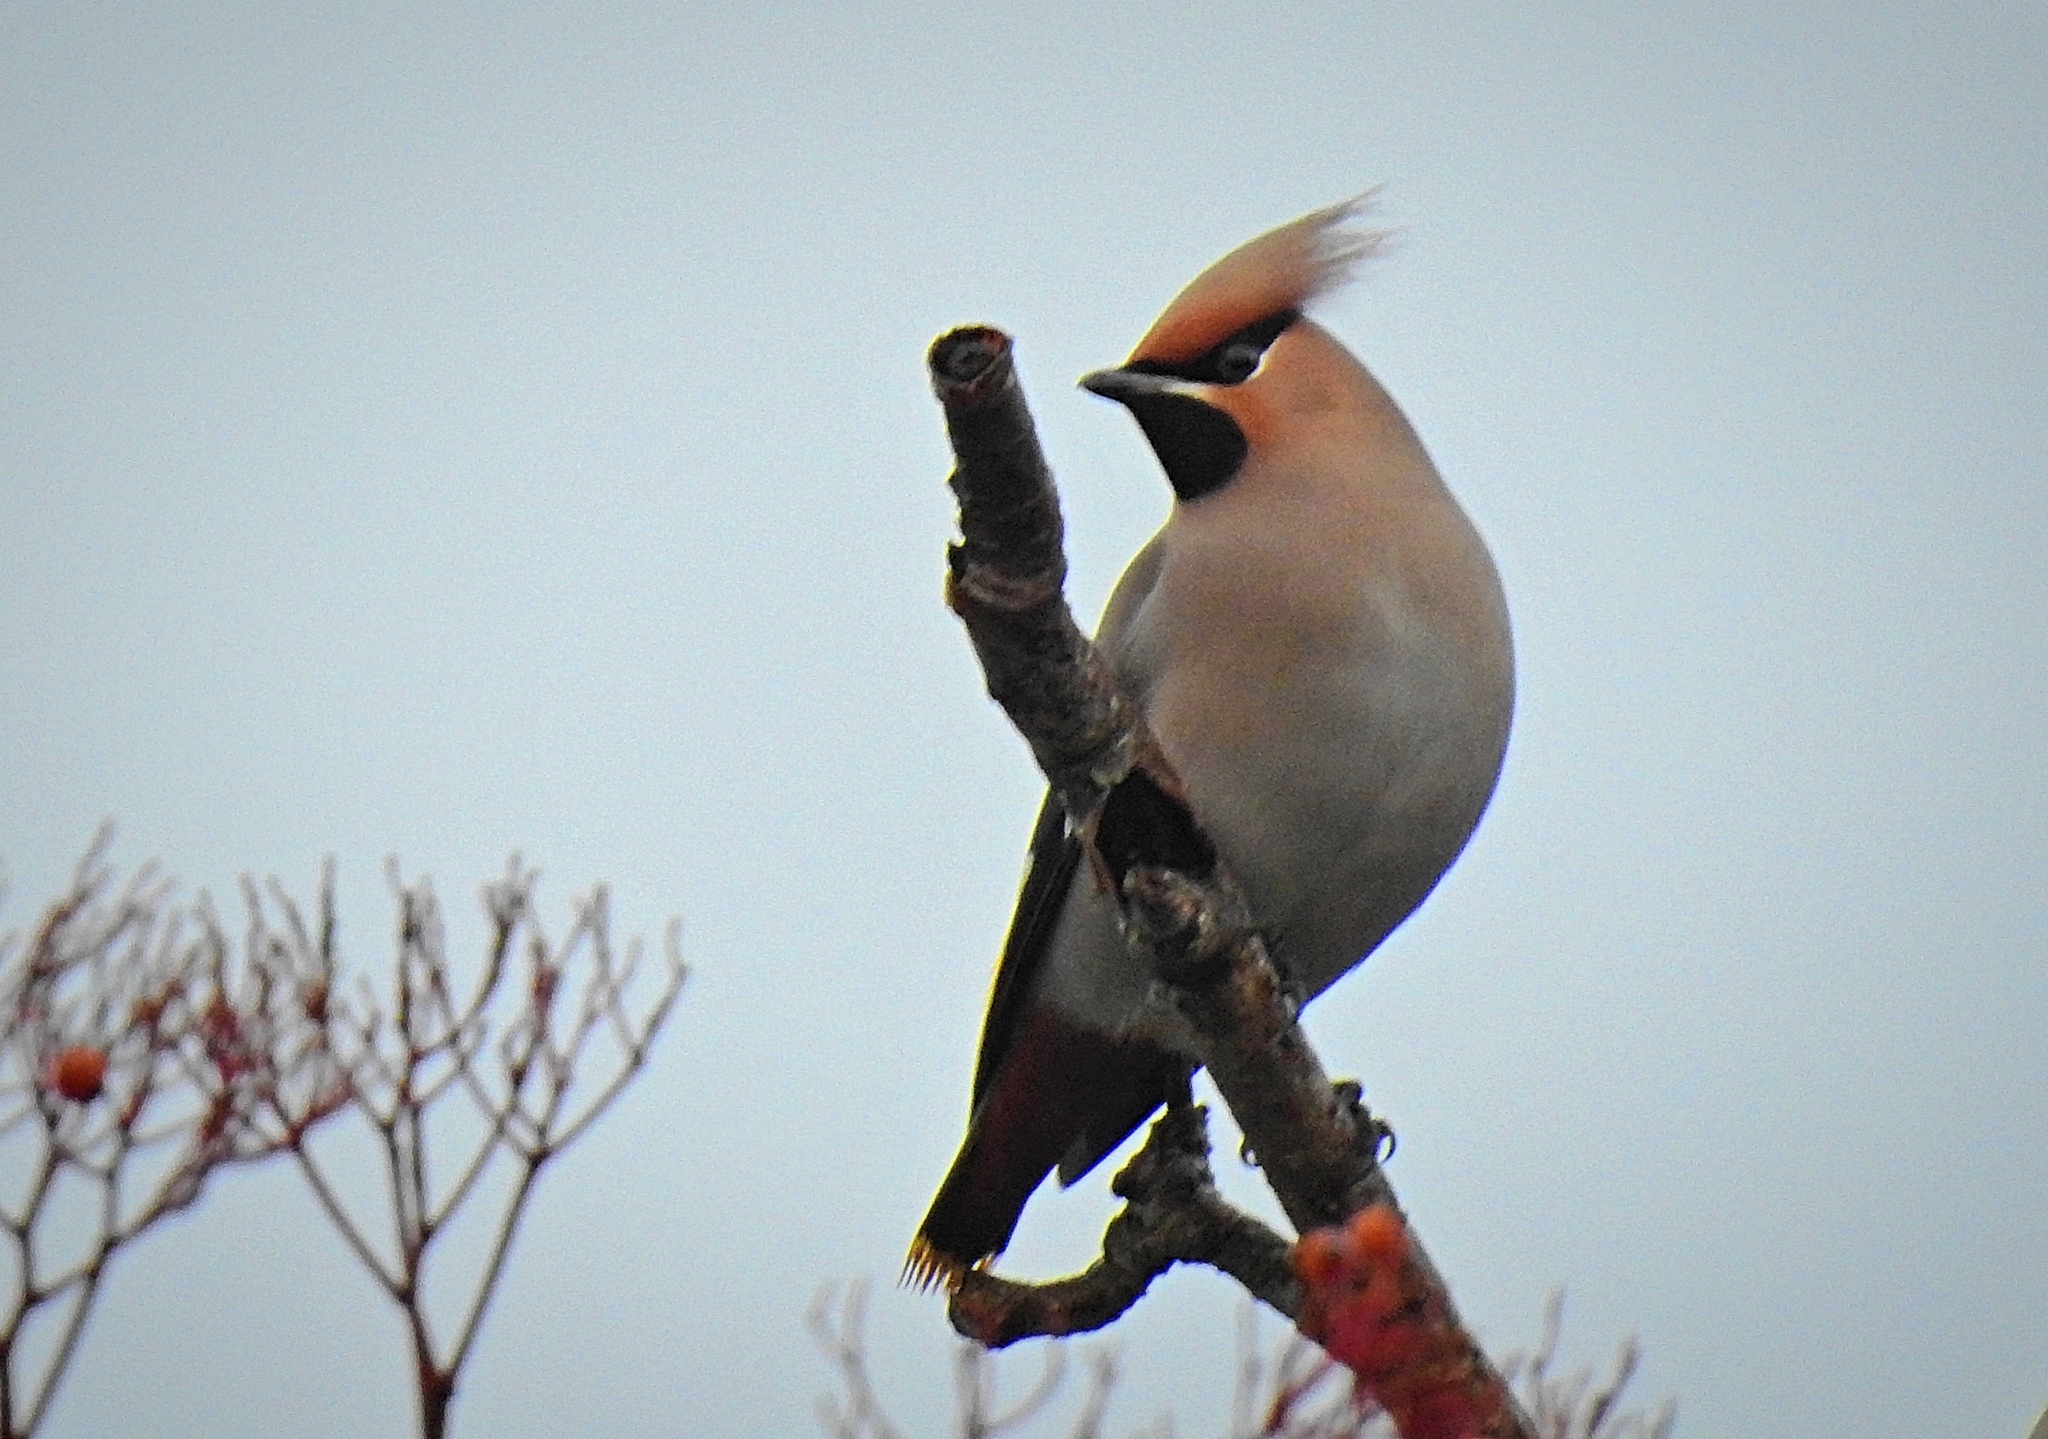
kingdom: Animalia
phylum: Chordata
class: Aves
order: Passeriformes
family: Bombycillidae
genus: Bombycilla
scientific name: Bombycilla garrulus
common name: Bohemian waxwing
